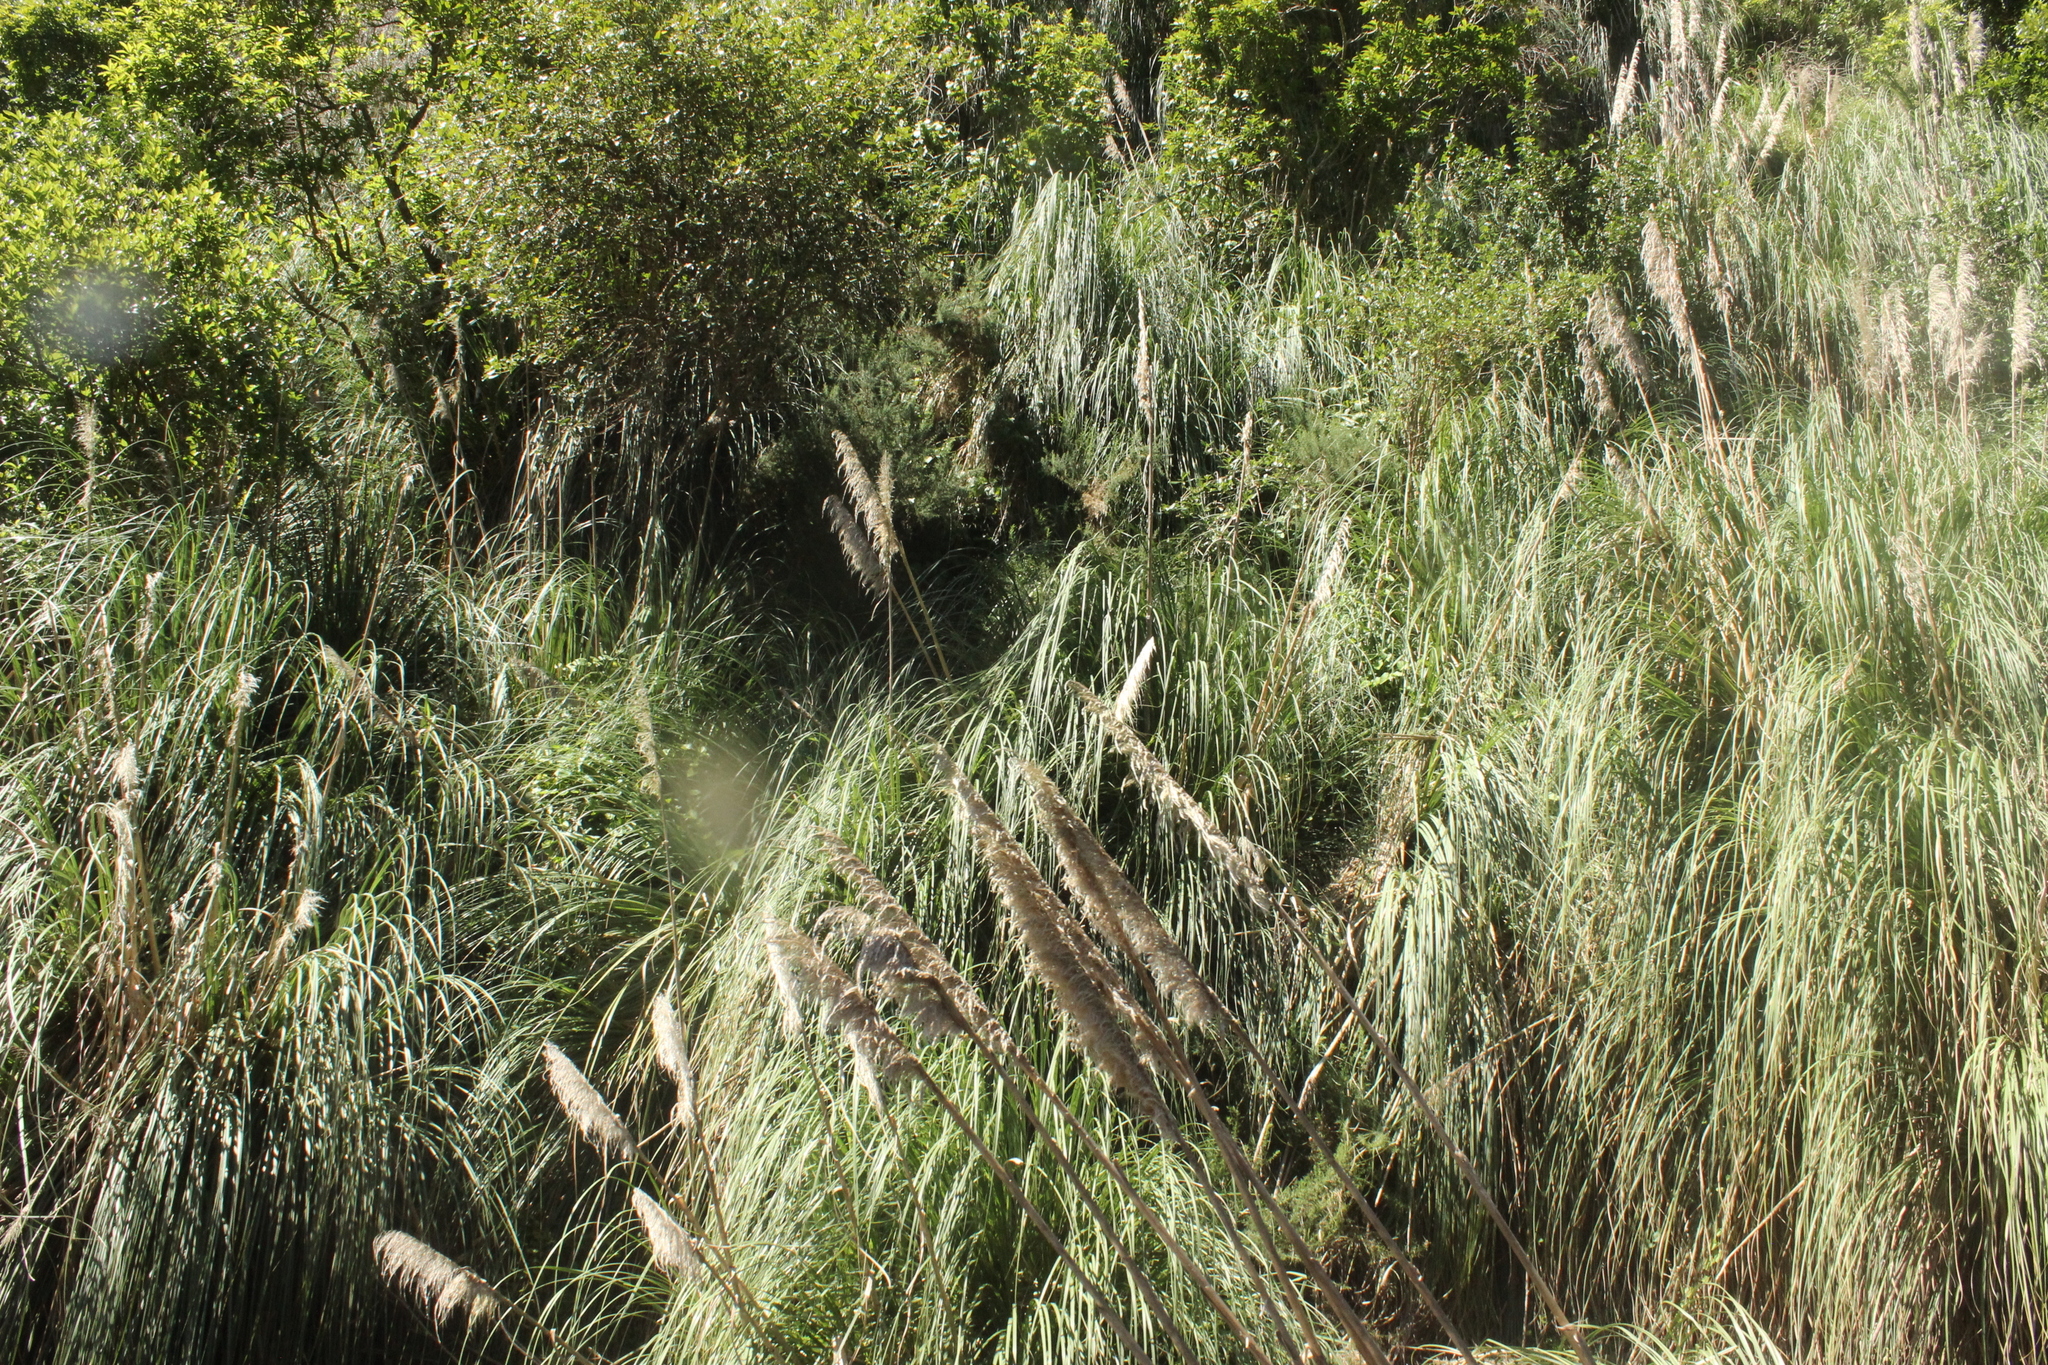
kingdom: Plantae
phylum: Tracheophyta
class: Liliopsida
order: Poales
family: Poaceae
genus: Cortaderia
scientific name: Cortaderia selloana
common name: Uruguayan pampas grass
